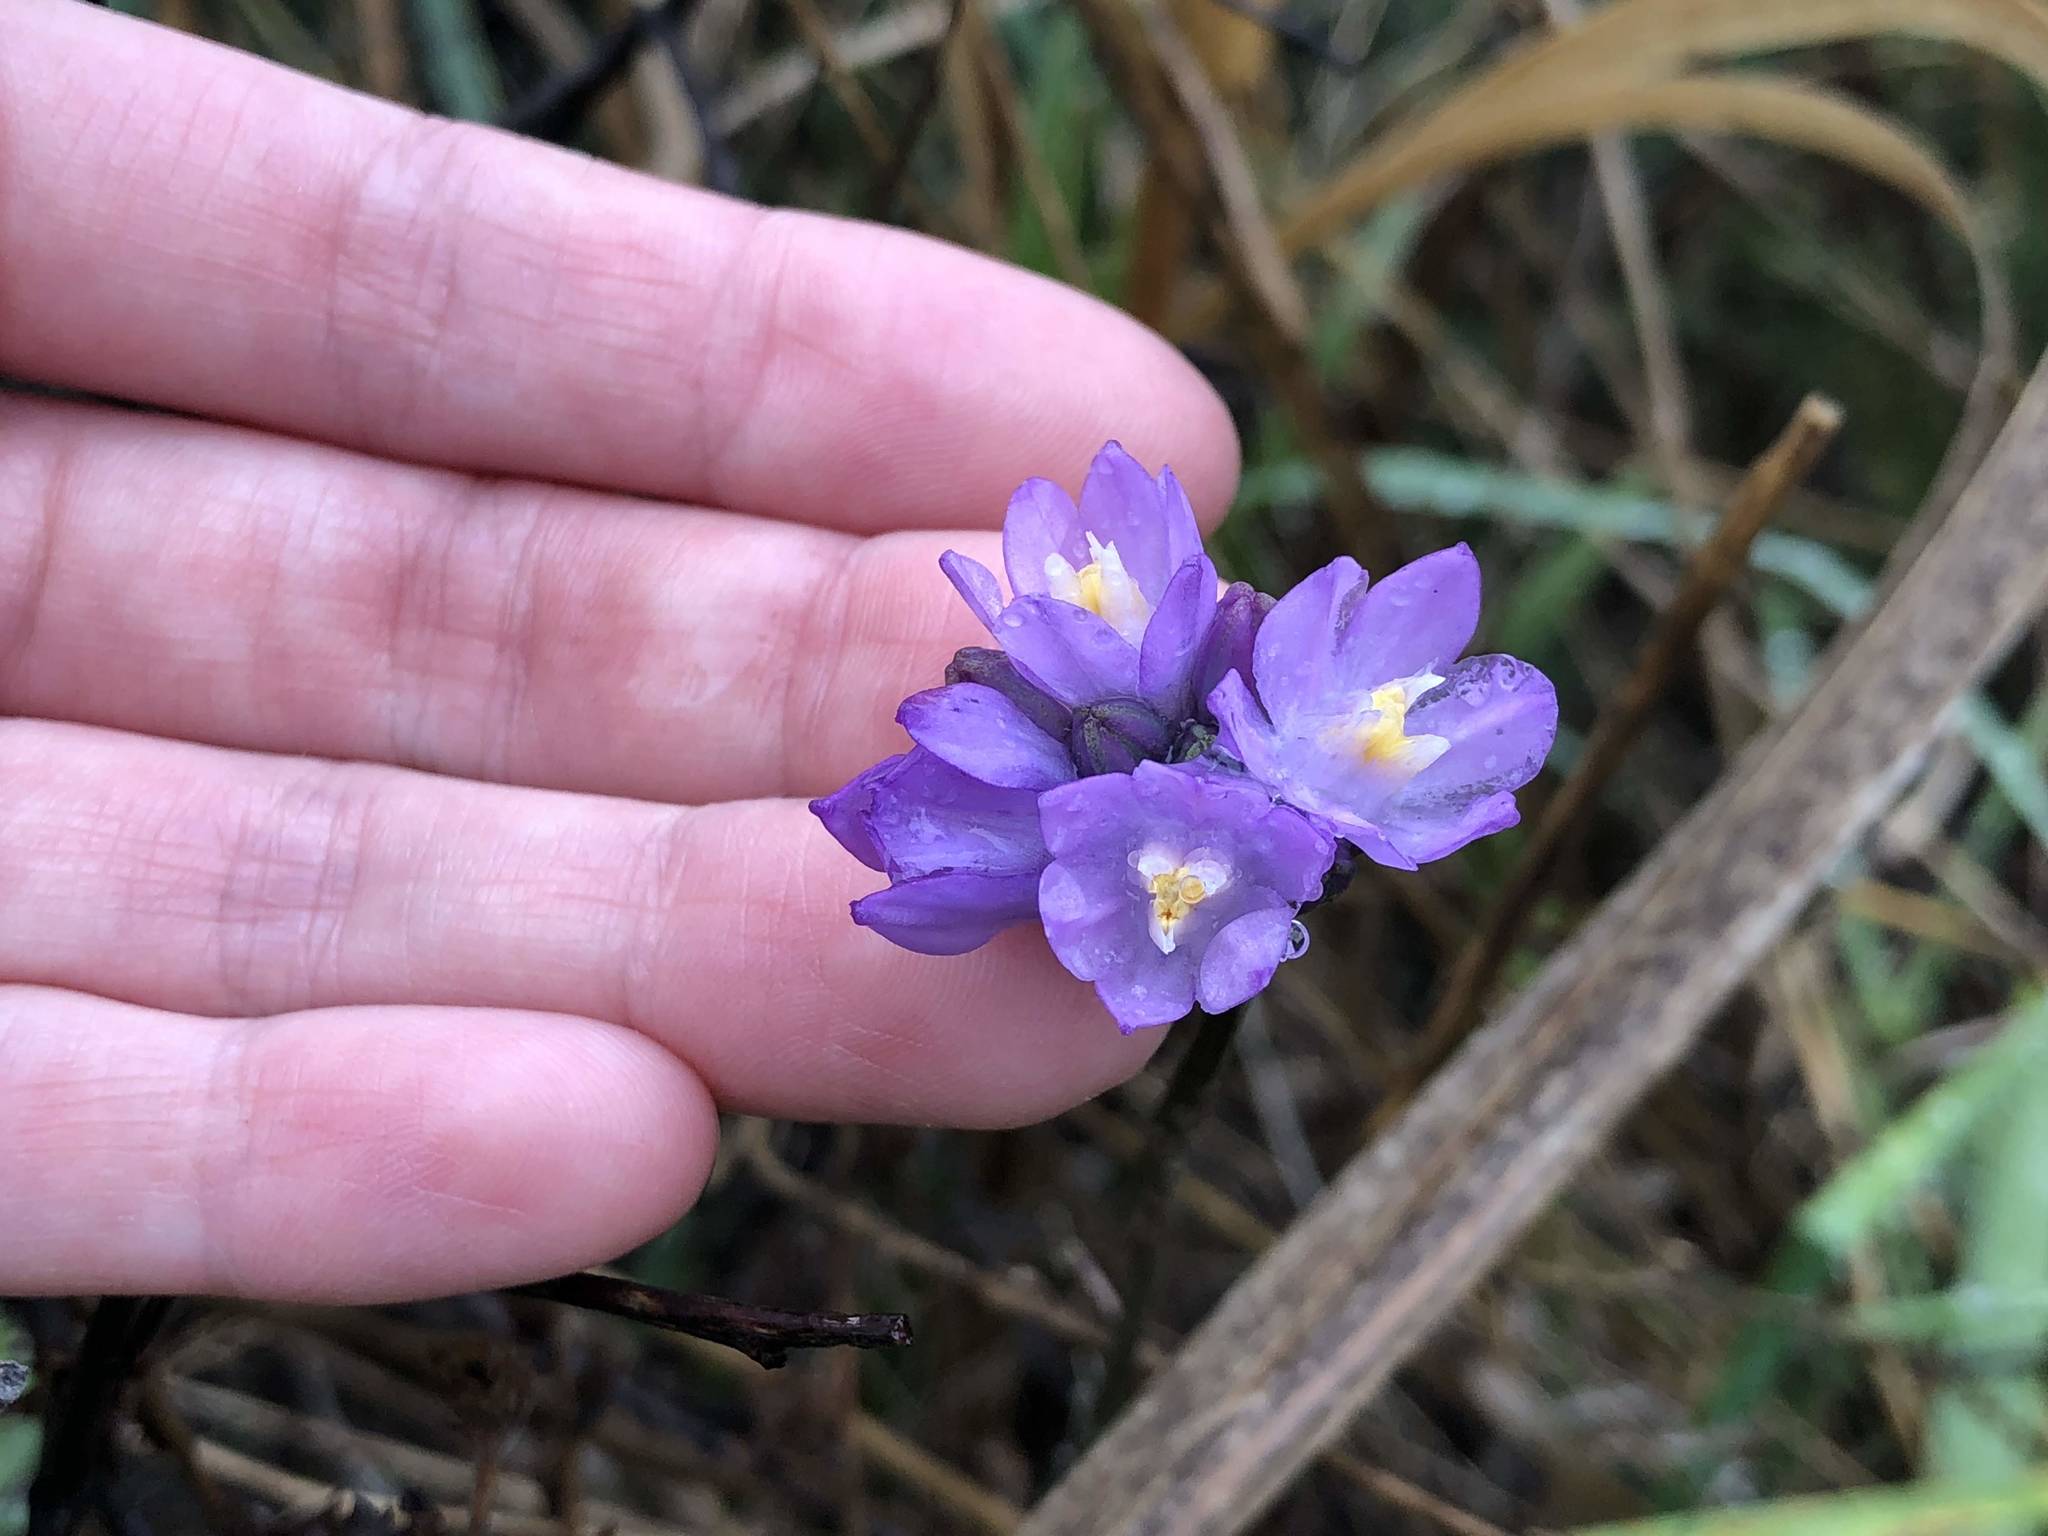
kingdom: Plantae
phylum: Tracheophyta
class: Liliopsida
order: Asparagales
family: Asparagaceae
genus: Dipterostemon
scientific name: Dipterostemon capitatus
